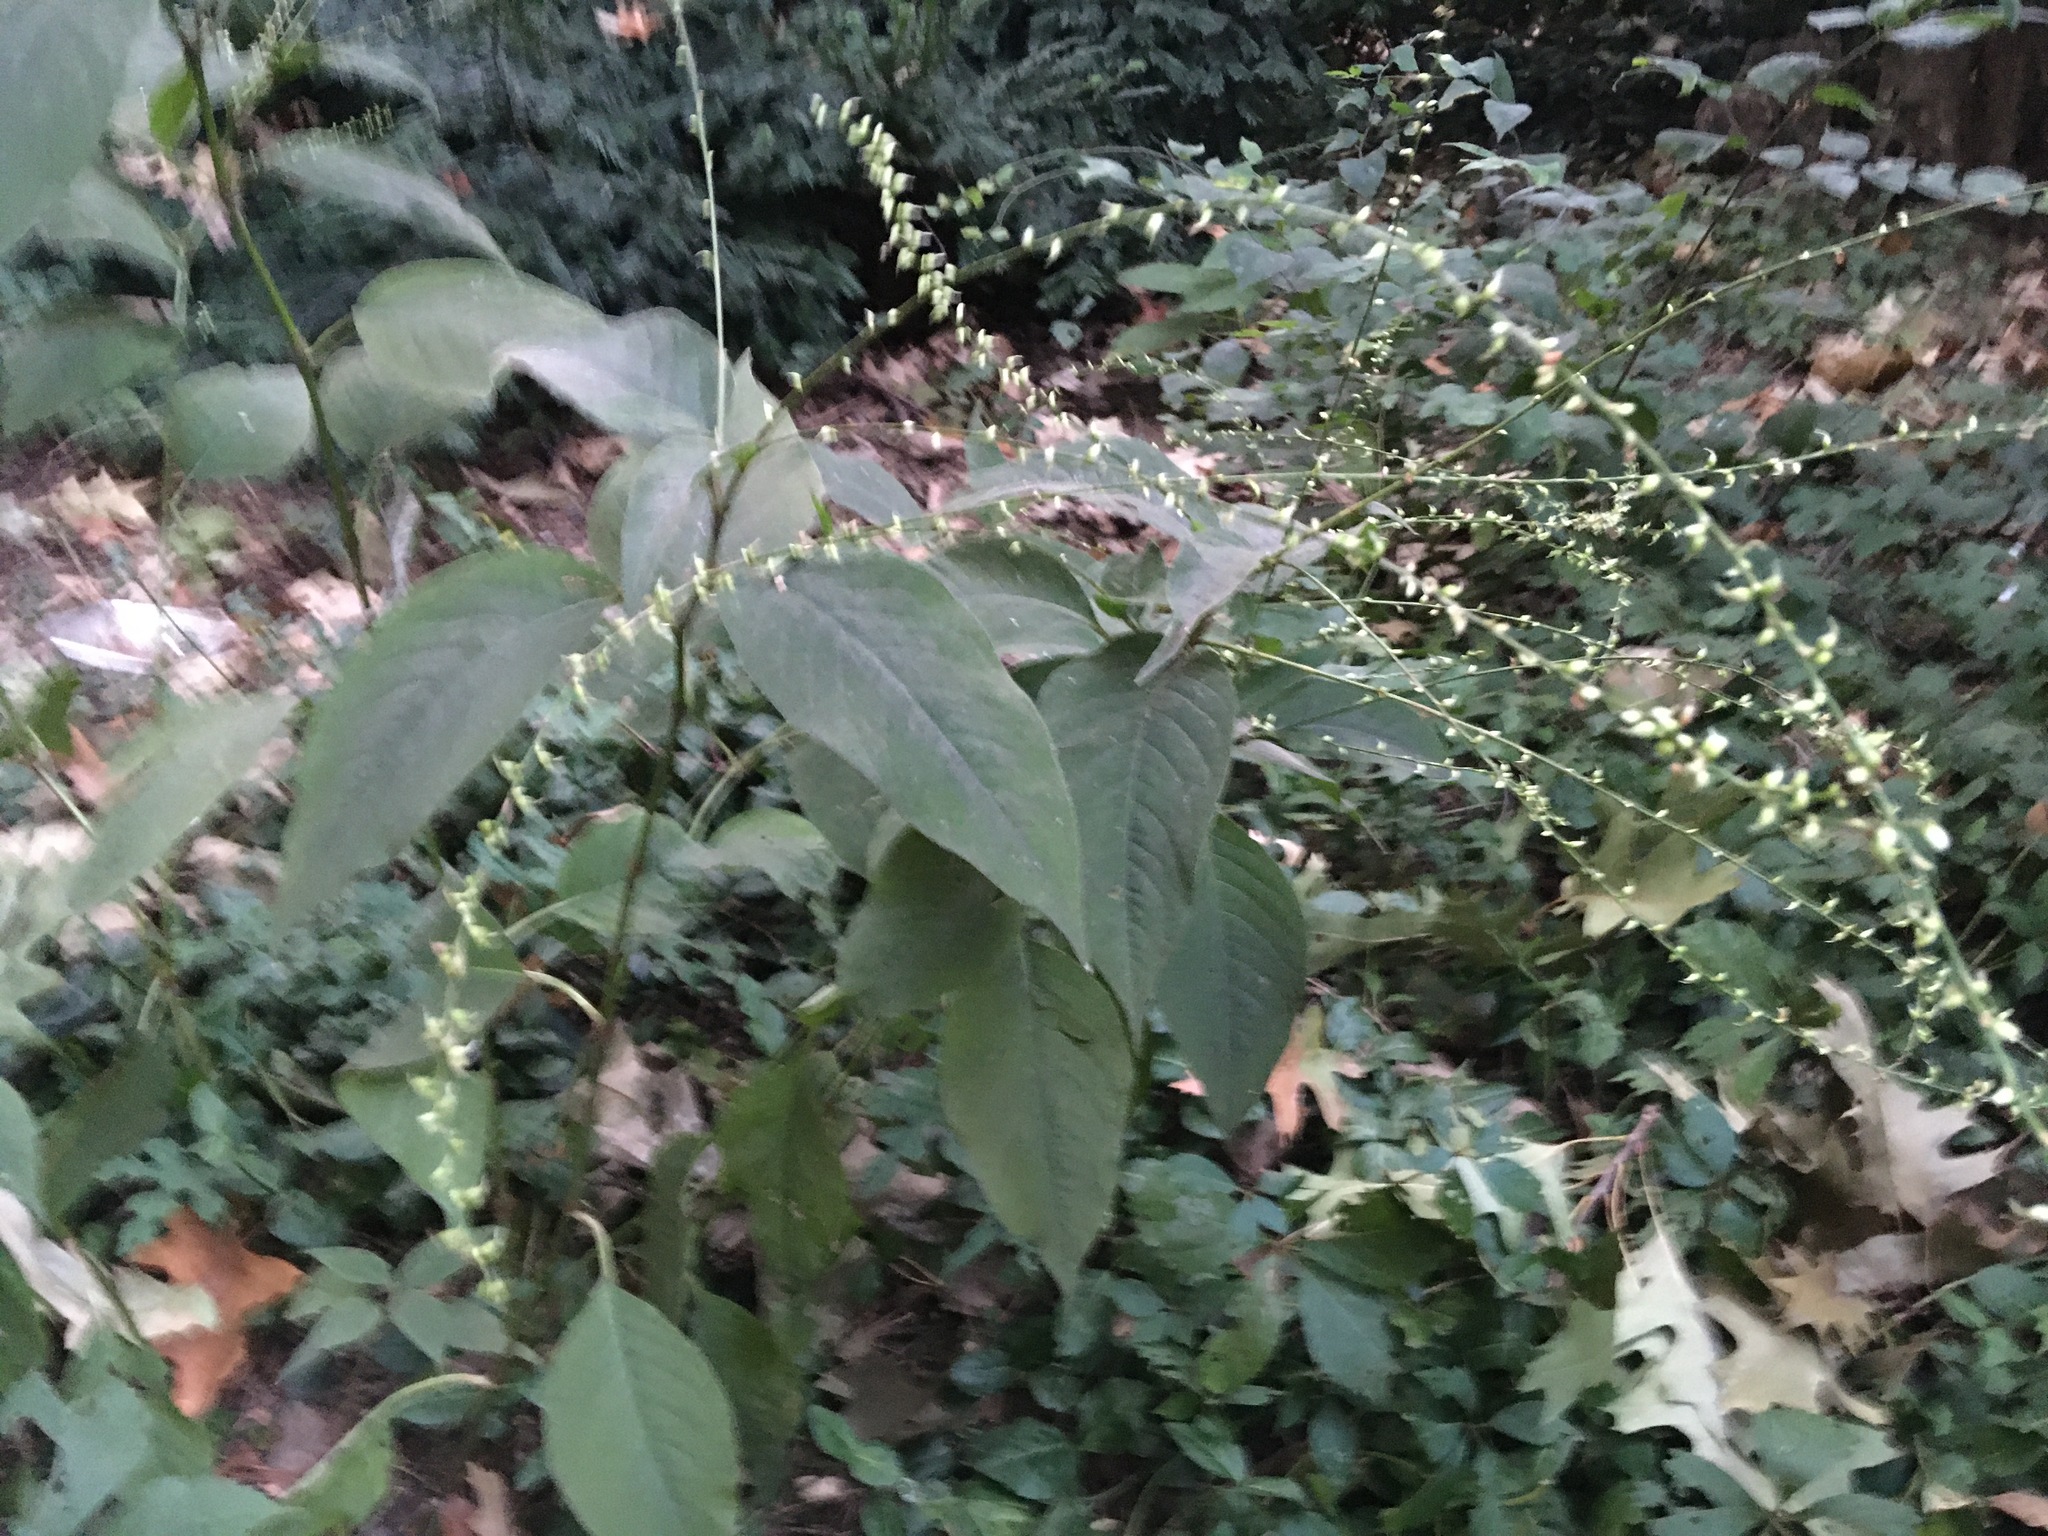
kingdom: Plantae
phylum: Tracheophyta
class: Magnoliopsida
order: Caryophyllales
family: Polygonaceae
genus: Persicaria
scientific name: Persicaria virginiana
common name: Jumpseed
